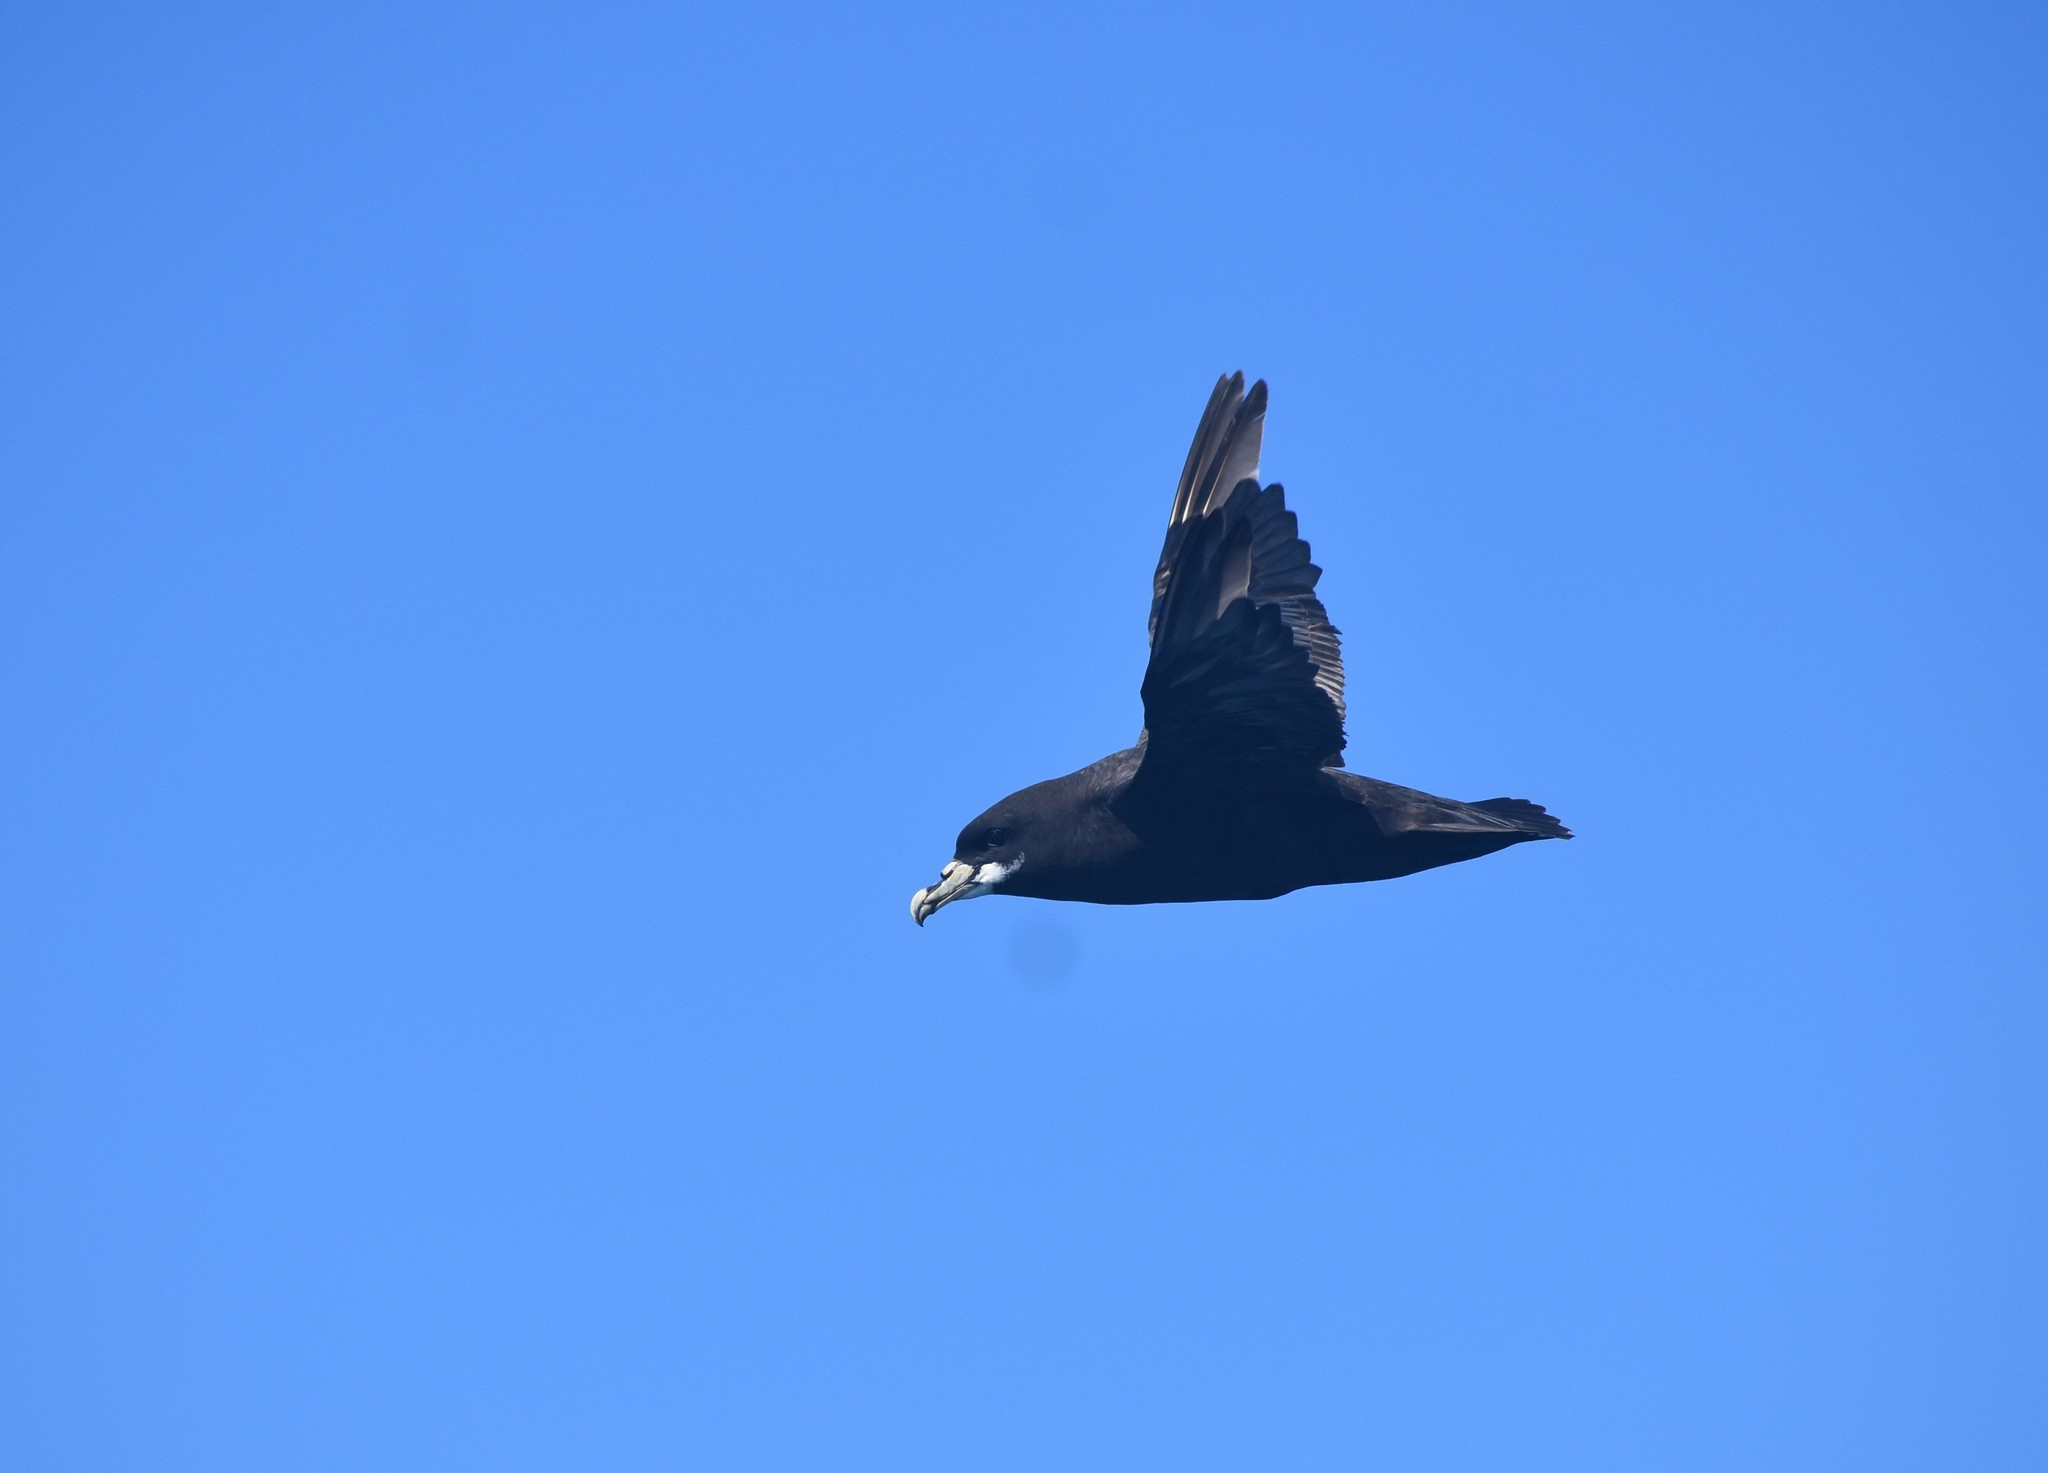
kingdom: Animalia
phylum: Chordata
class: Aves
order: Procellariiformes
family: Procellariidae
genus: Procellaria
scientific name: Procellaria aequinoctialis
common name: White-chinned petrel
